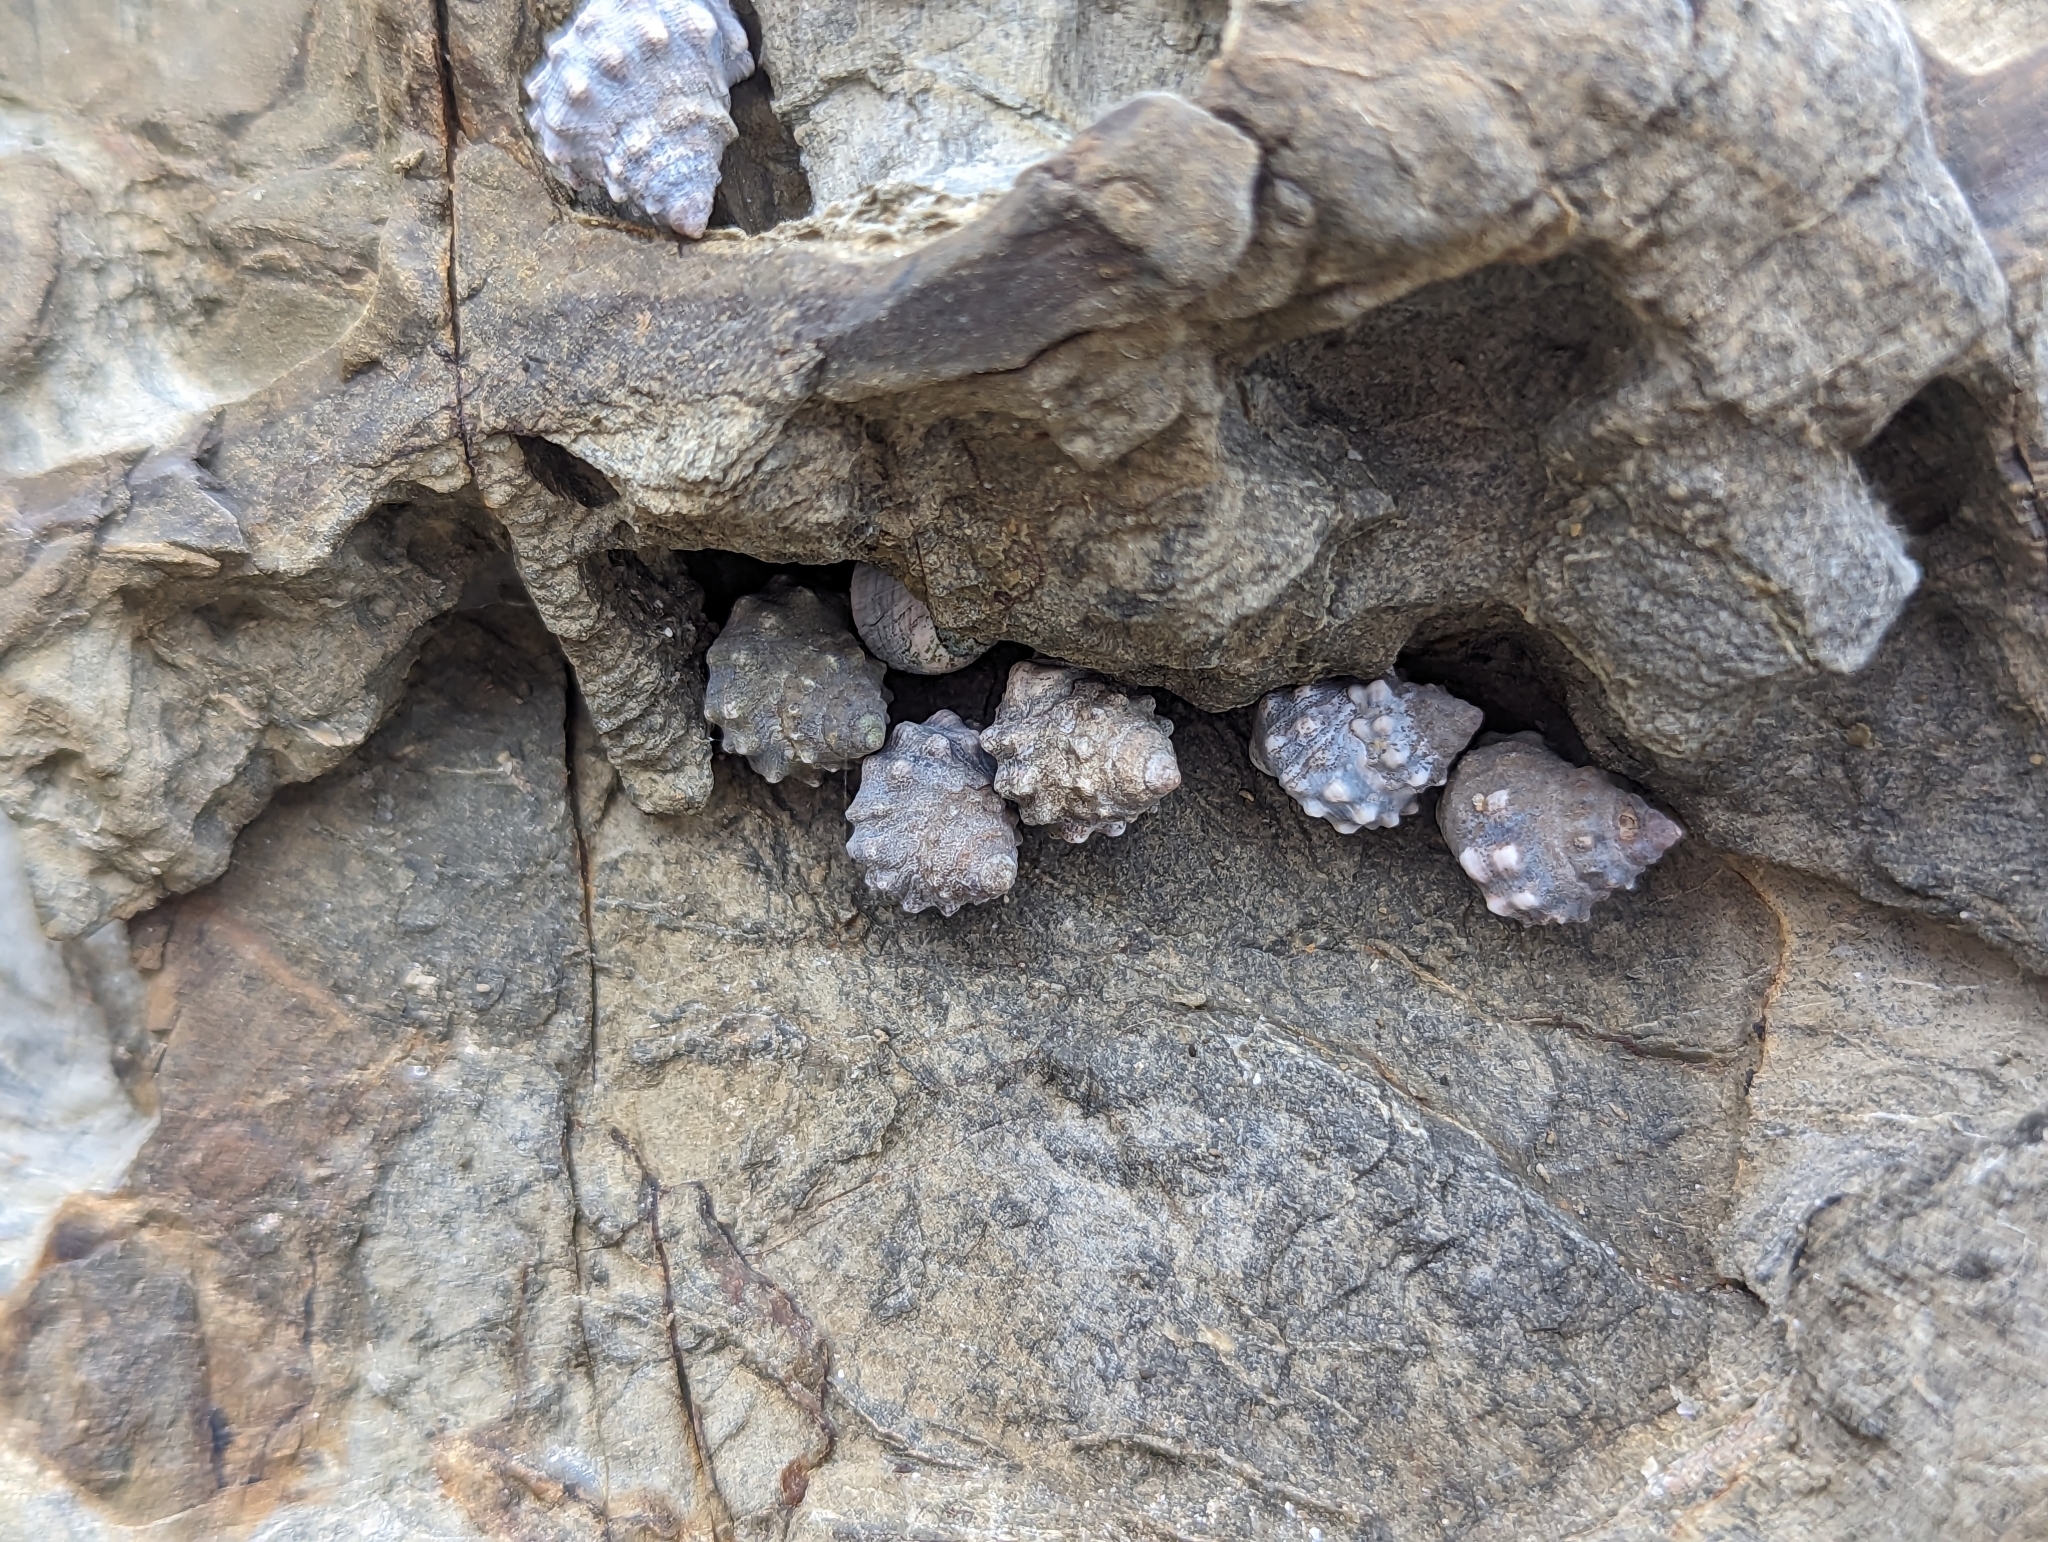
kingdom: Animalia
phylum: Mollusca
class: Gastropoda
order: Littorinimorpha
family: Littorinidae
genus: Nodilittorina
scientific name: Nodilittorina pyramidalis
